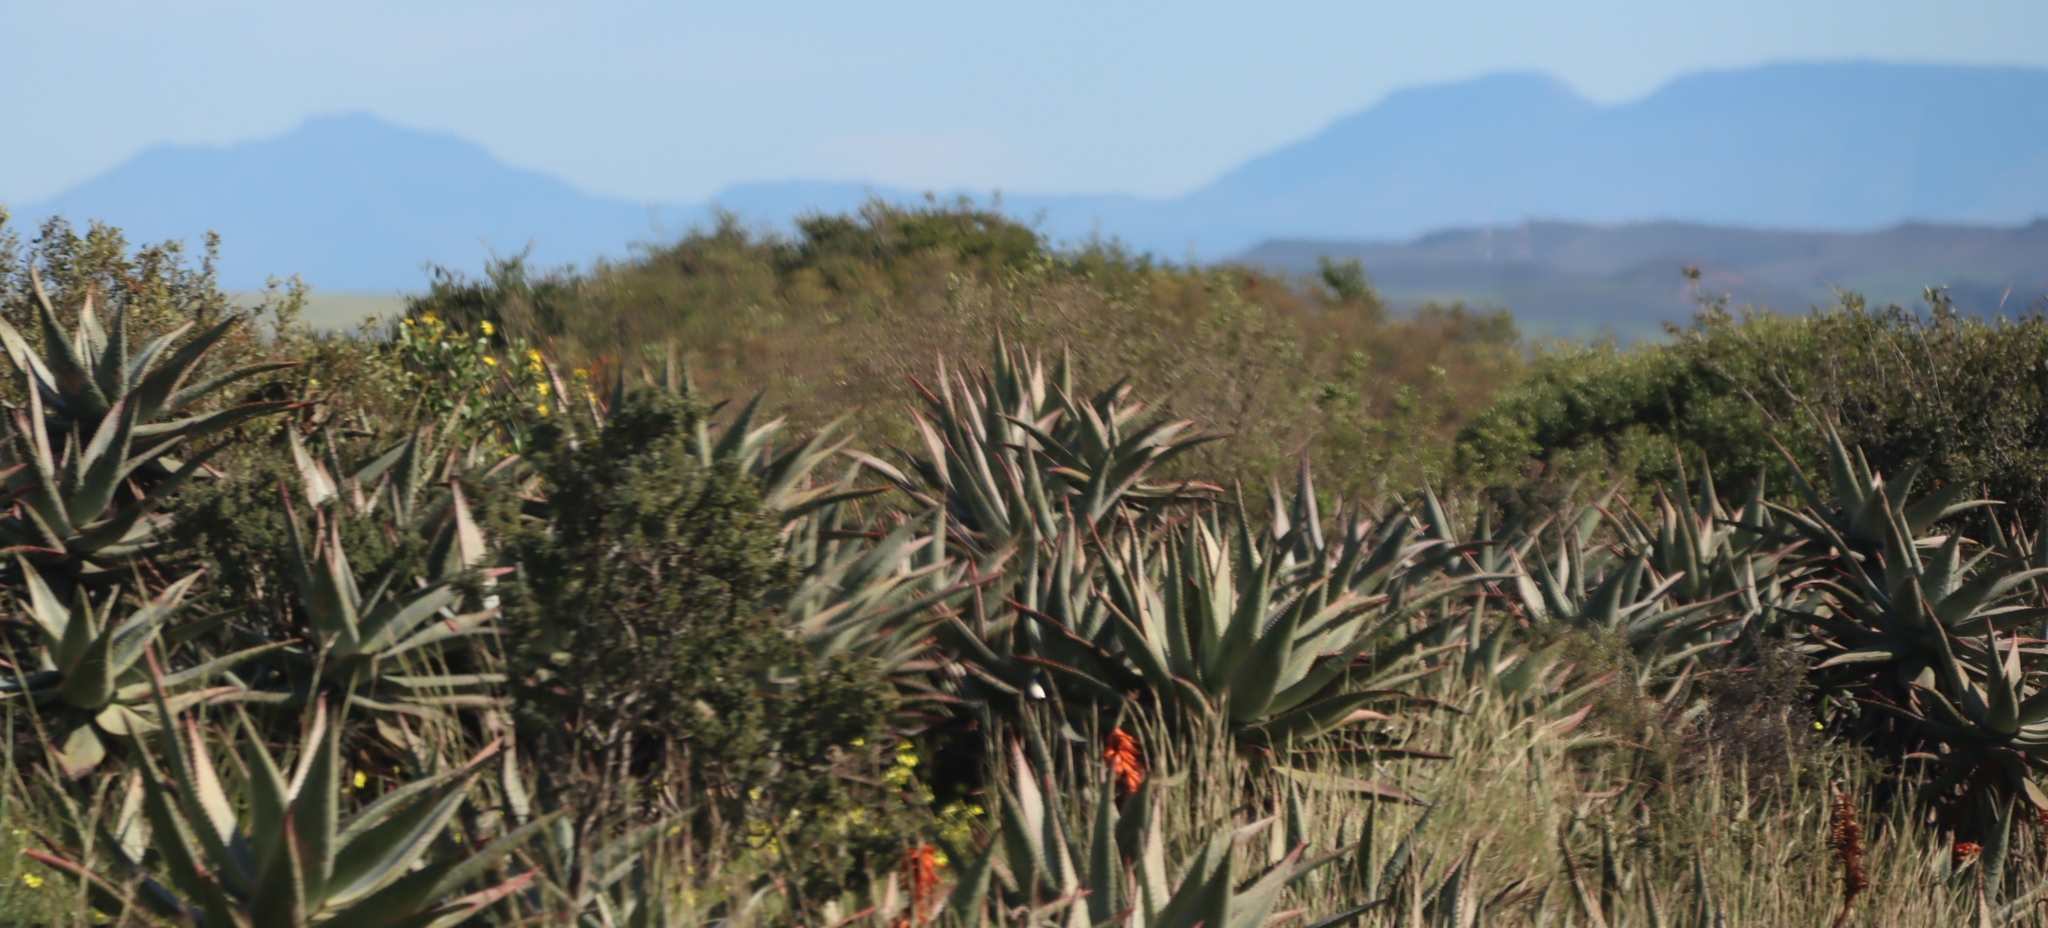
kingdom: Plantae
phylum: Tracheophyta
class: Liliopsida
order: Asparagales
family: Asphodelaceae
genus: Aloe
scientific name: Aloe ferox
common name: Bitter aloe
